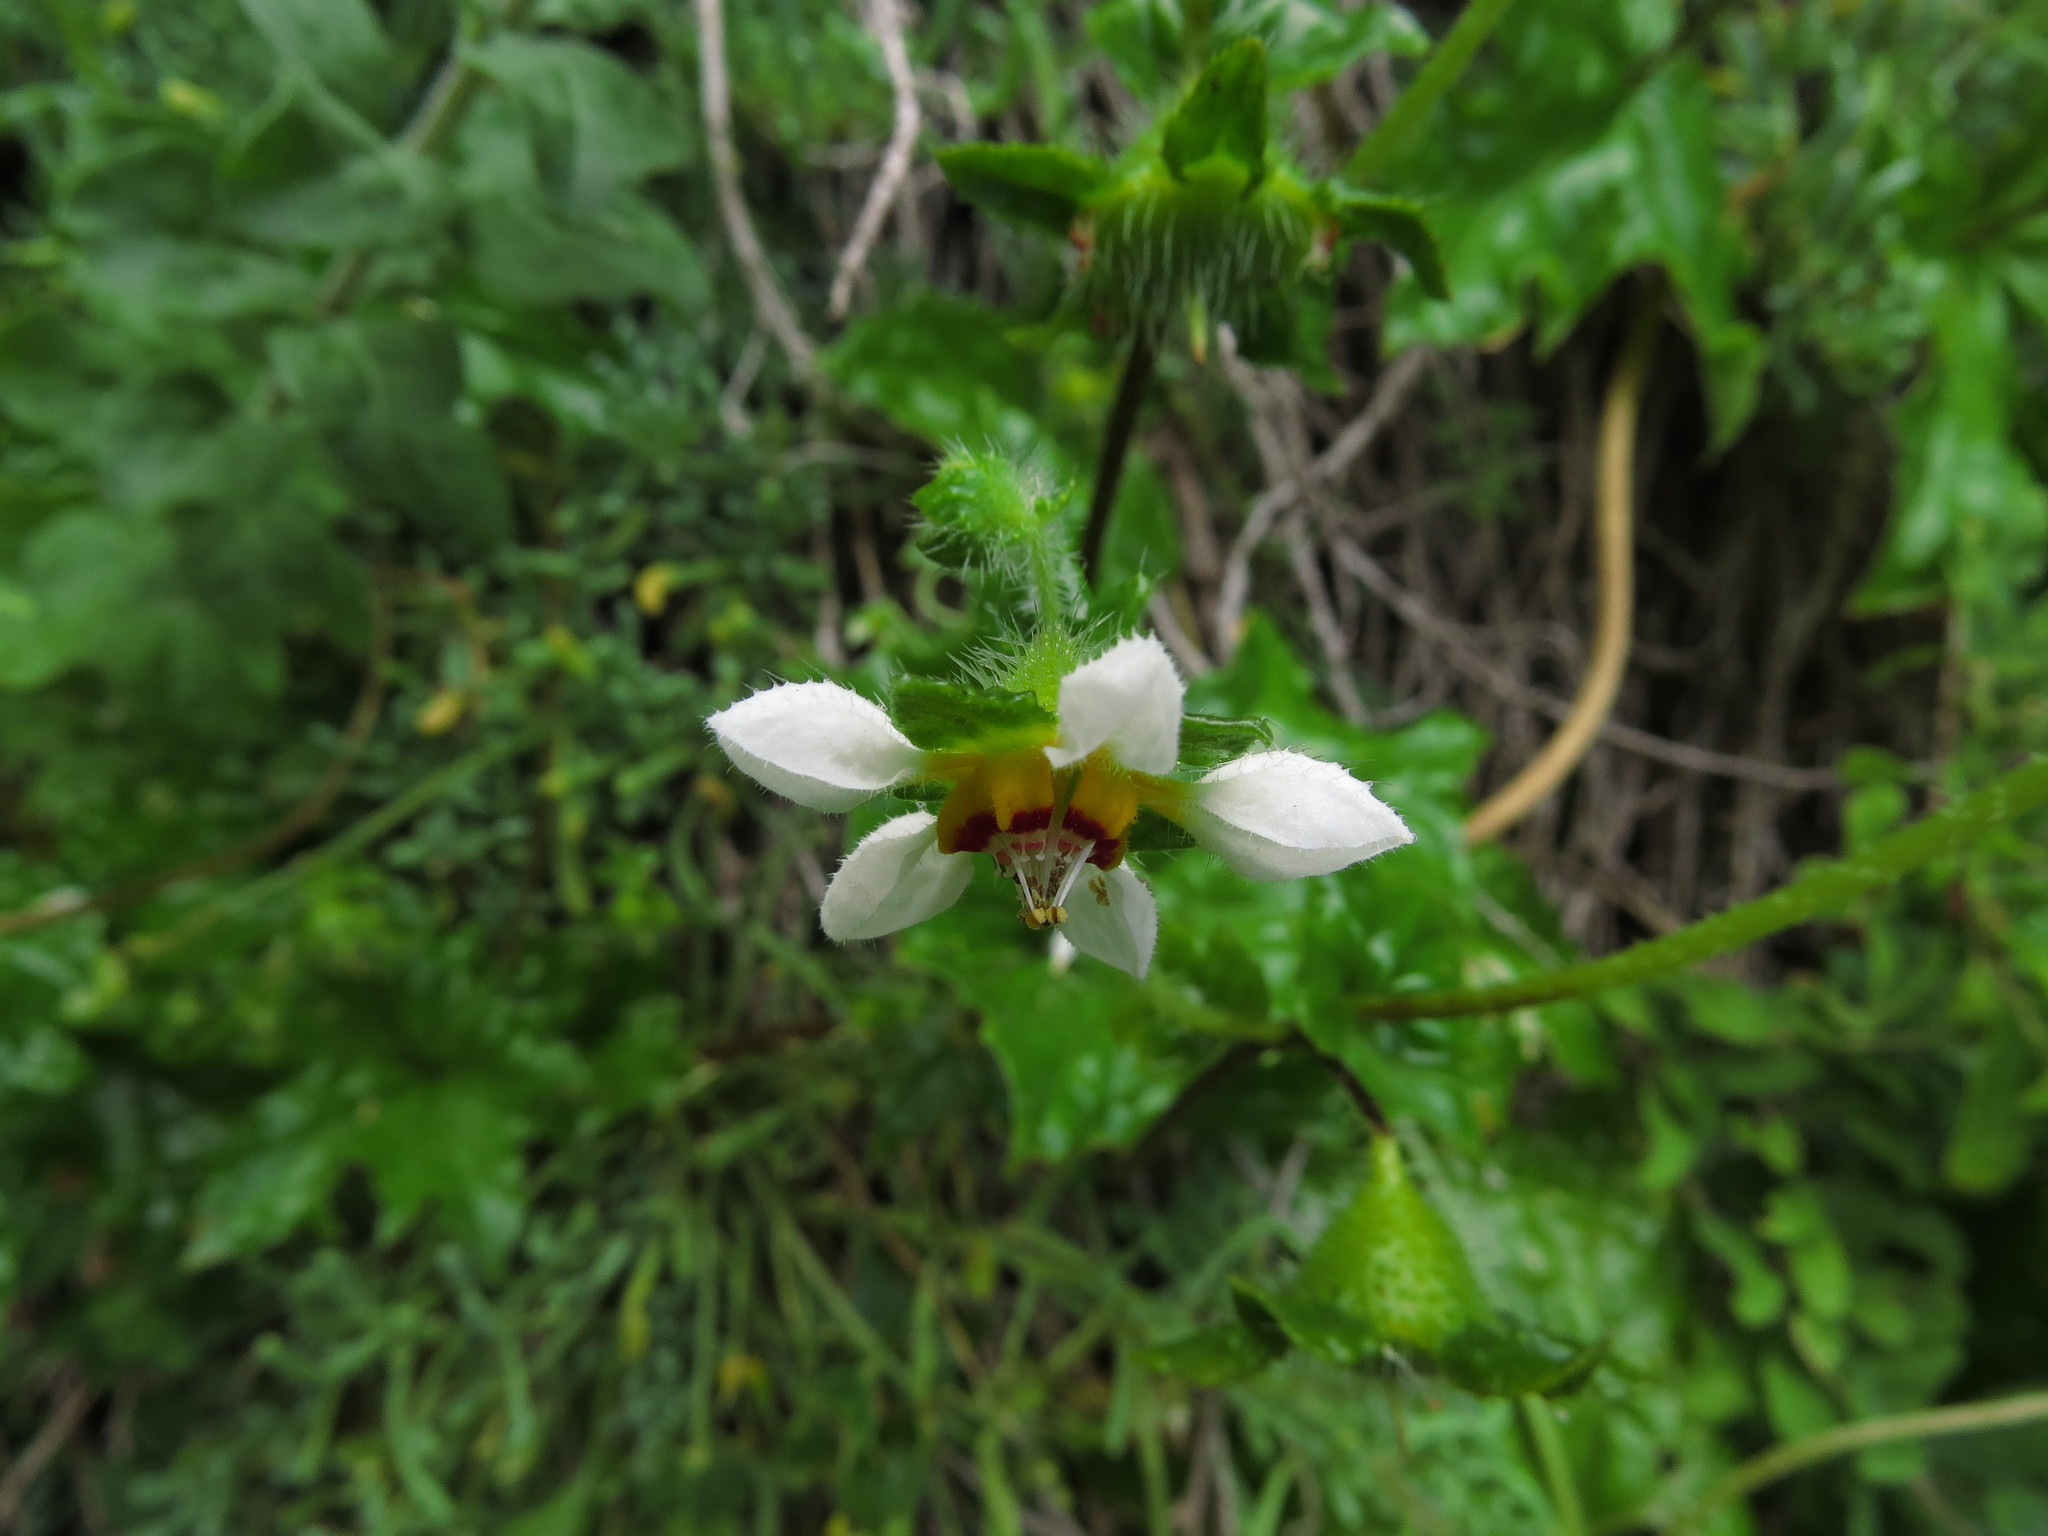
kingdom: Plantae
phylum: Tracheophyta
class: Magnoliopsida
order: Cornales
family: Loasaceae
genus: Loasa
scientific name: Loasa elongata
